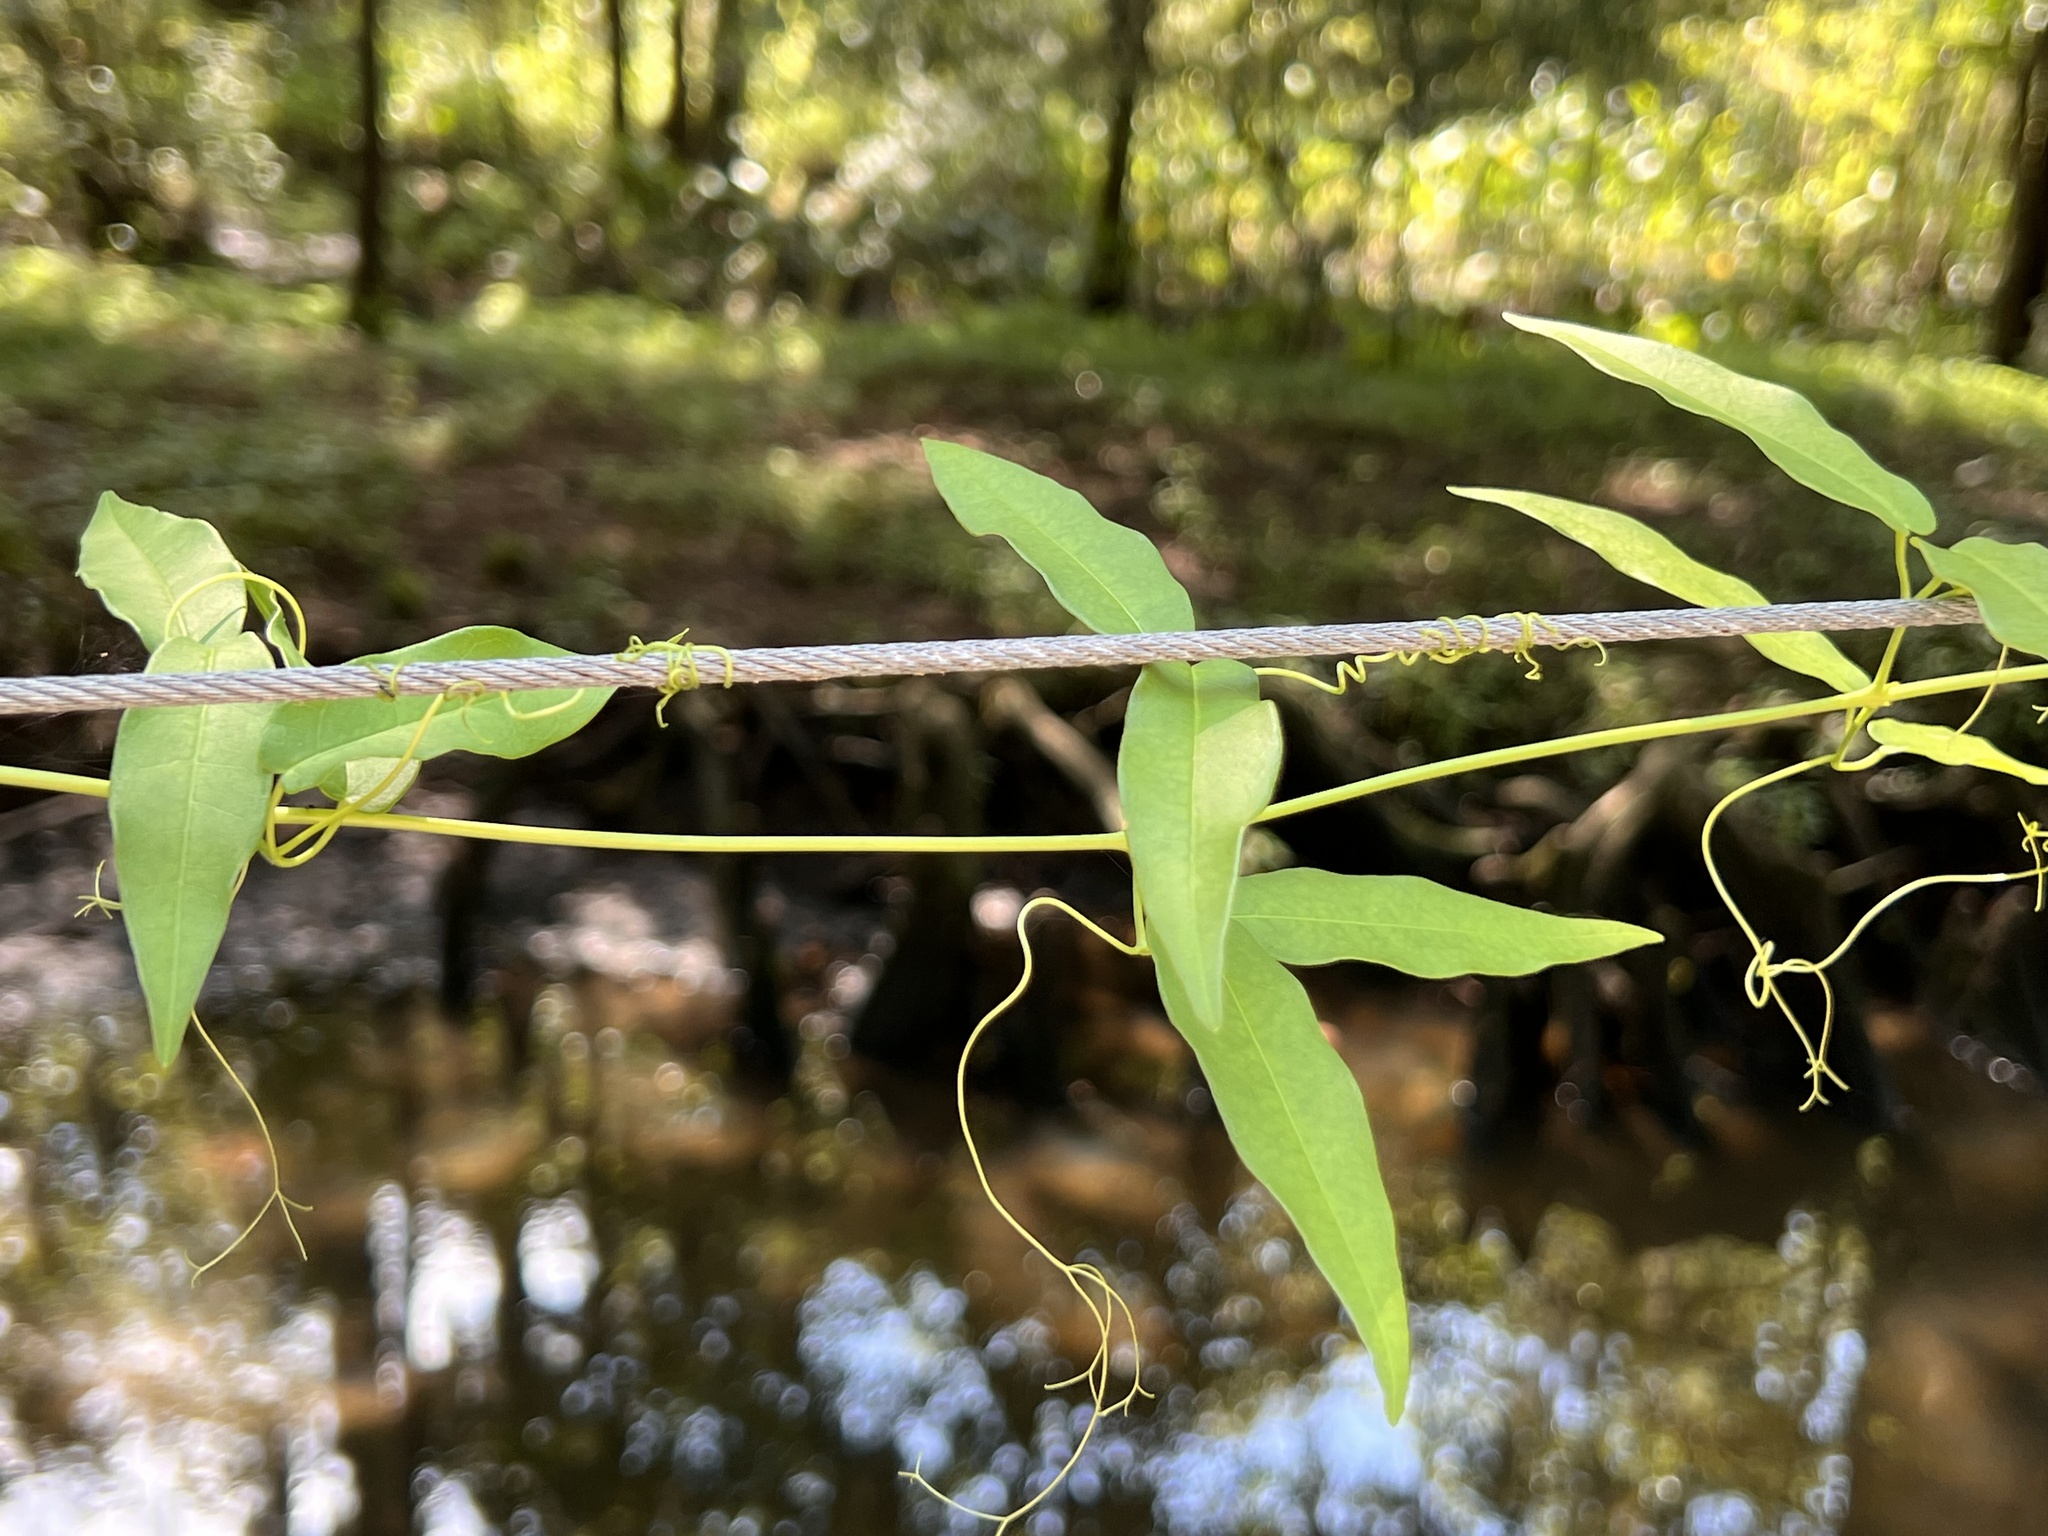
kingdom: Plantae
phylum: Tracheophyta
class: Magnoliopsida
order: Lamiales
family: Bignoniaceae
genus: Bignonia
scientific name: Bignonia capreolata
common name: Crossvine
